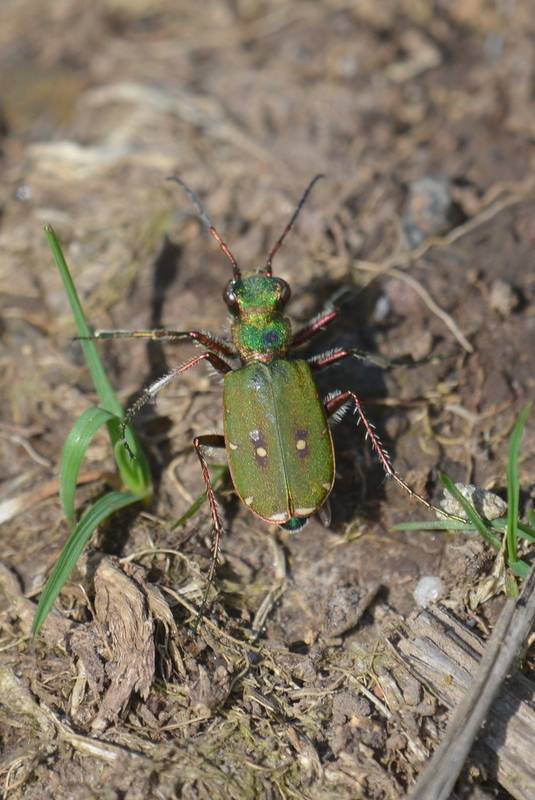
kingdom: Animalia
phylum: Arthropoda
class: Insecta
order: Coleoptera
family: Carabidae
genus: Cicindela
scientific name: Cicindela campestris
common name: Common tiger beetle
